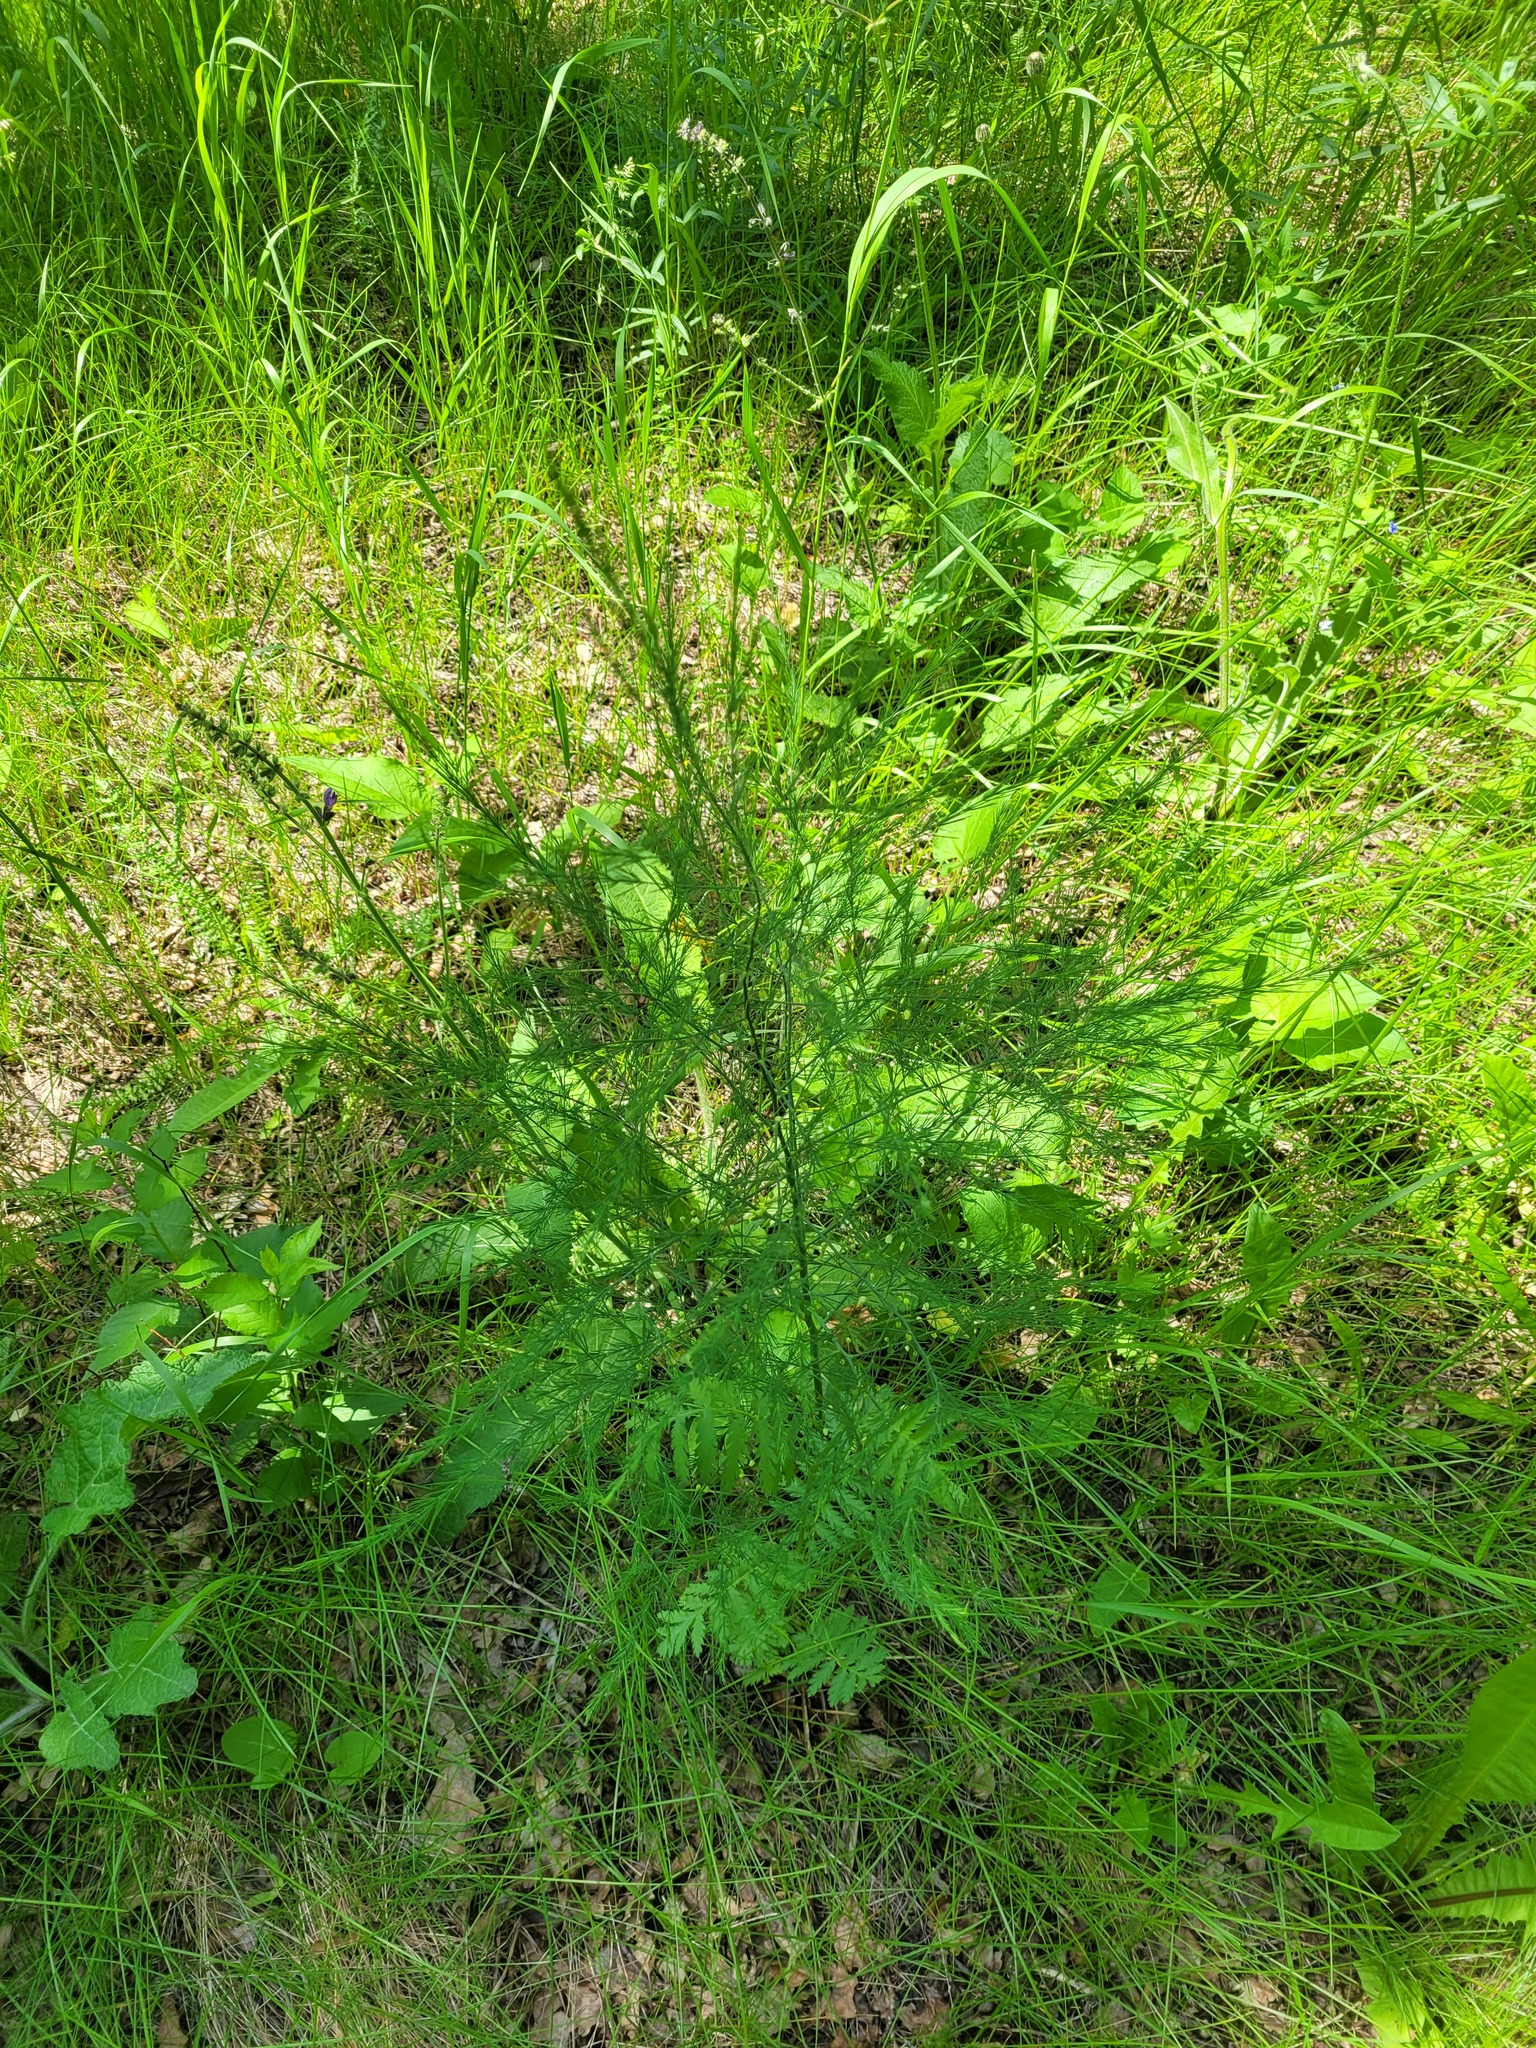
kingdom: Plantae
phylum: Tracheophyta
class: Liliopsida
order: Asparagales
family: Asparagaceae
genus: Asparagus
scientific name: Asparagus officinalis
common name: Garden asparagus
